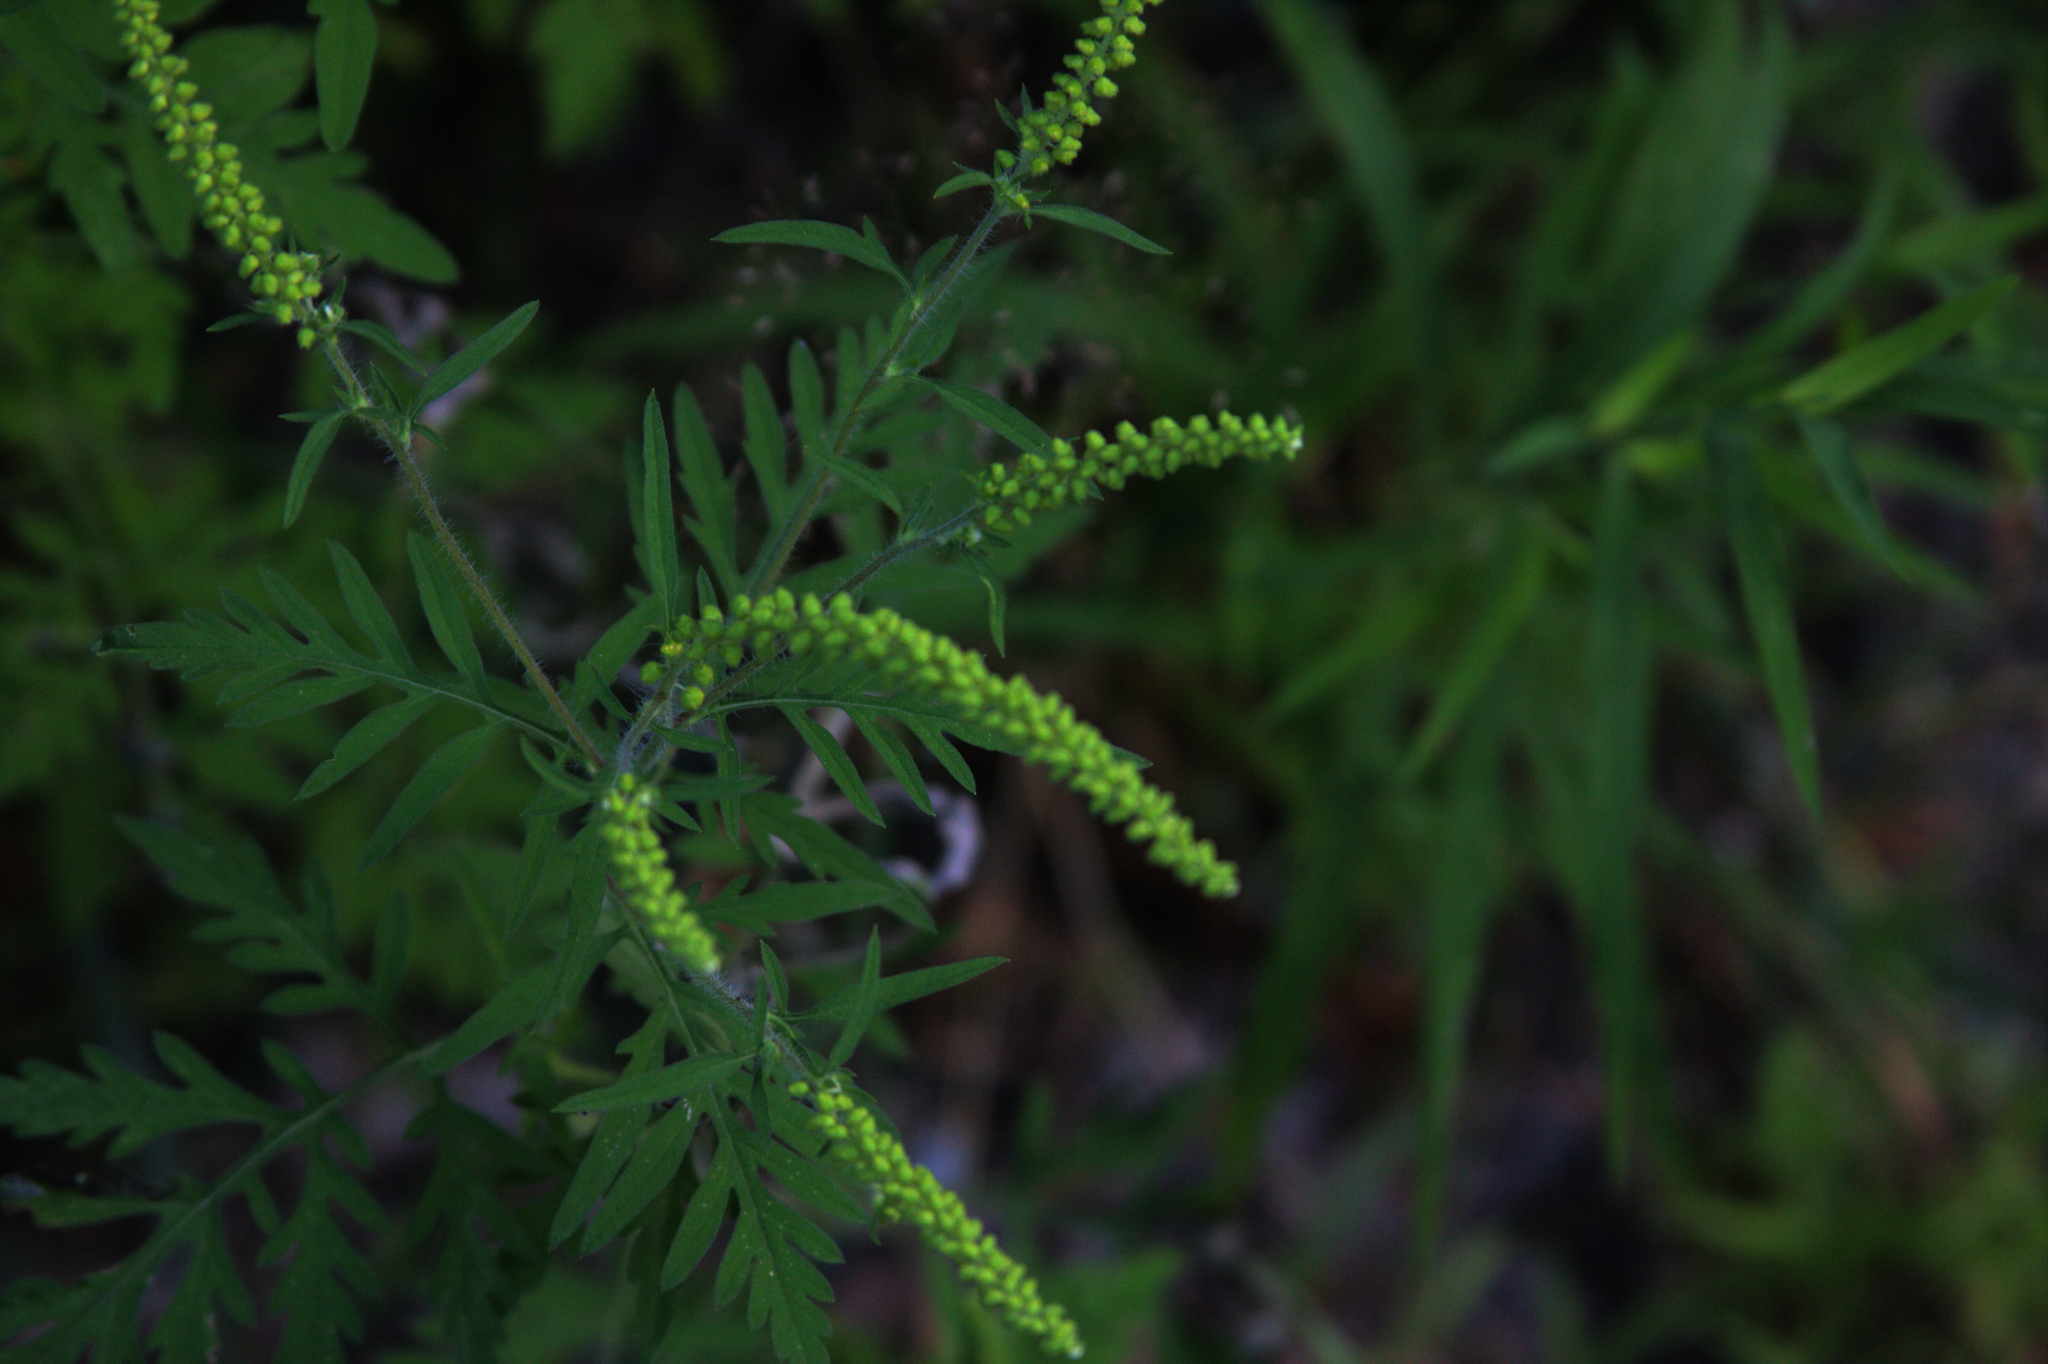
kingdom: Plantae
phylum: Tracheophyta
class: Magnoliopsida
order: Asterales
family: Asteraceae
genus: Ambrosia
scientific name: Ambrosia artemisiifolia
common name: Annual ragweed
